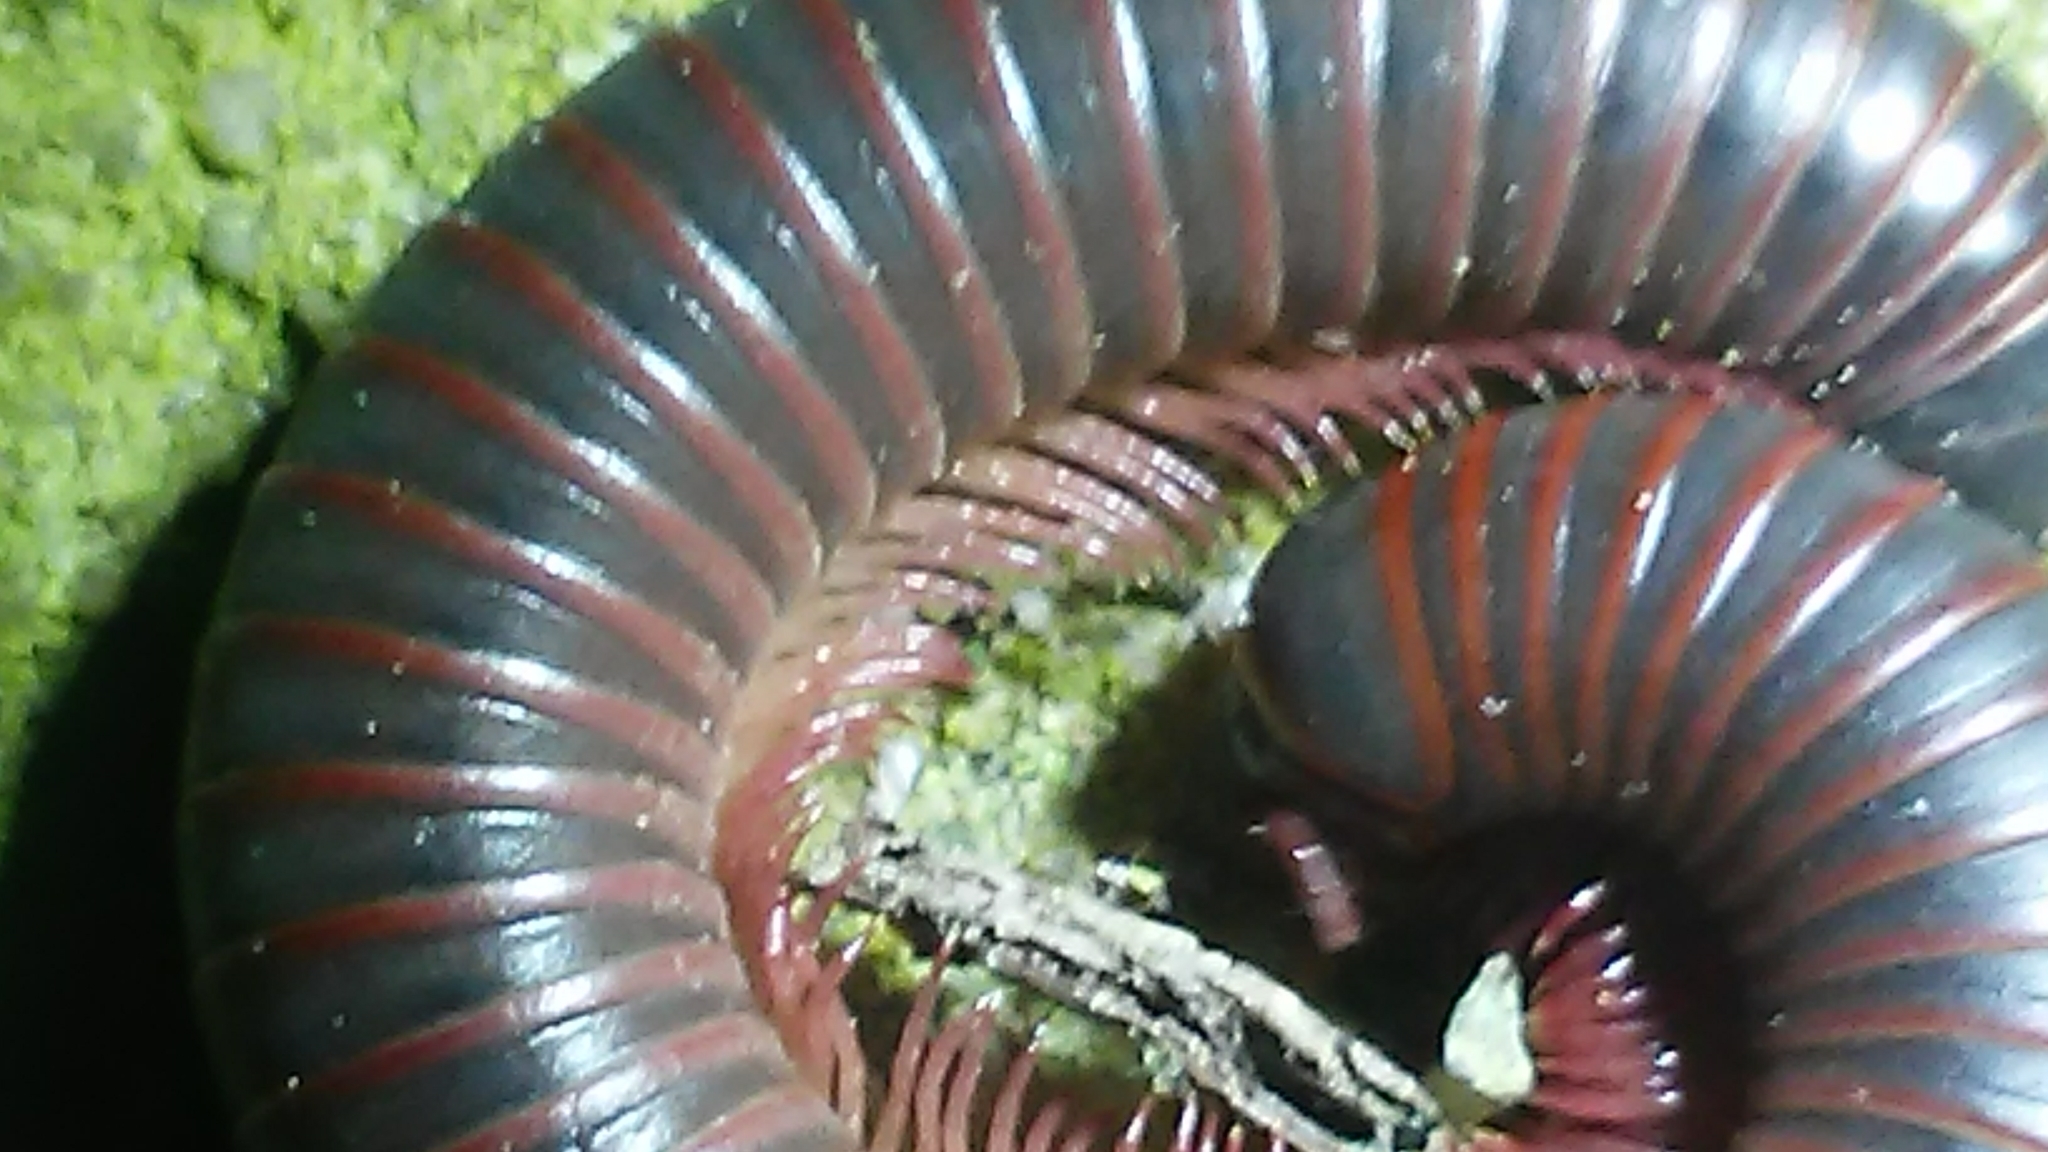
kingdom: Animalia
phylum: Arthropoda
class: Diplopoda
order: Spirobolida
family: Spirobolidae
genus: Narceus
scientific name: Narceus
